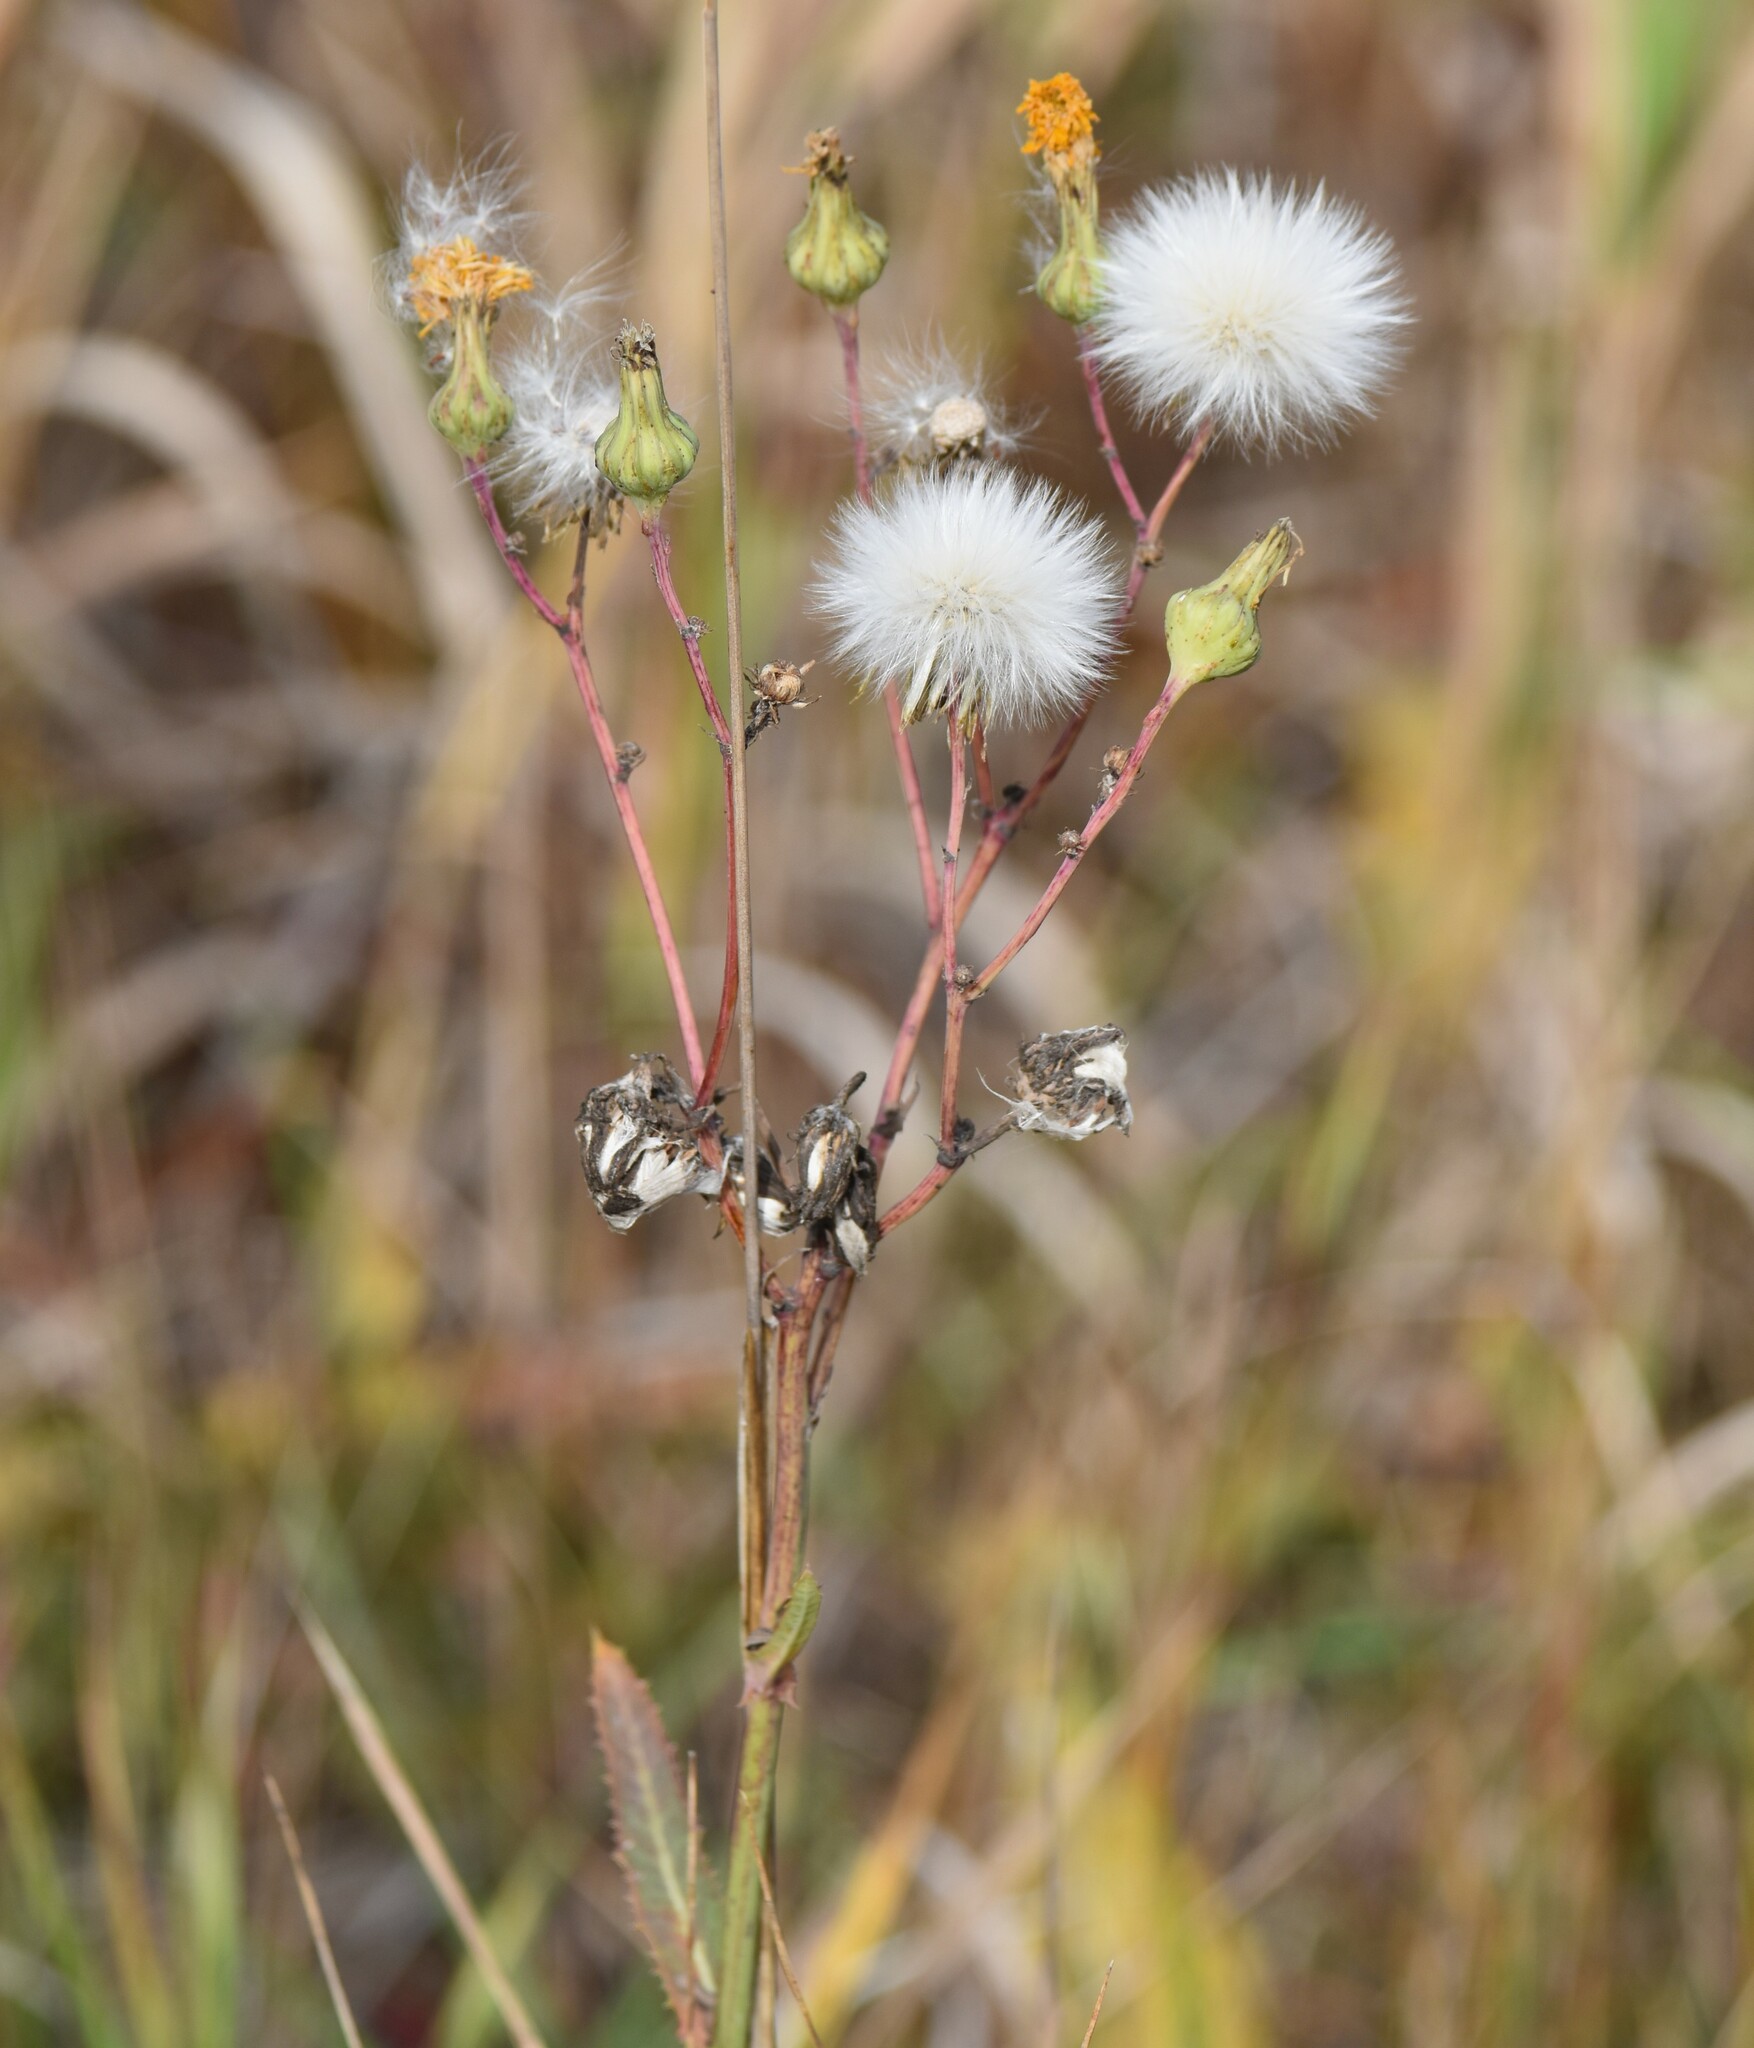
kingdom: Plantae
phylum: Tracheophyta
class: Magnoliopsida
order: Asterales
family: Asteraceae
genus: Sonchus
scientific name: Sonchus arvensis
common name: Perennial sow-thistle
